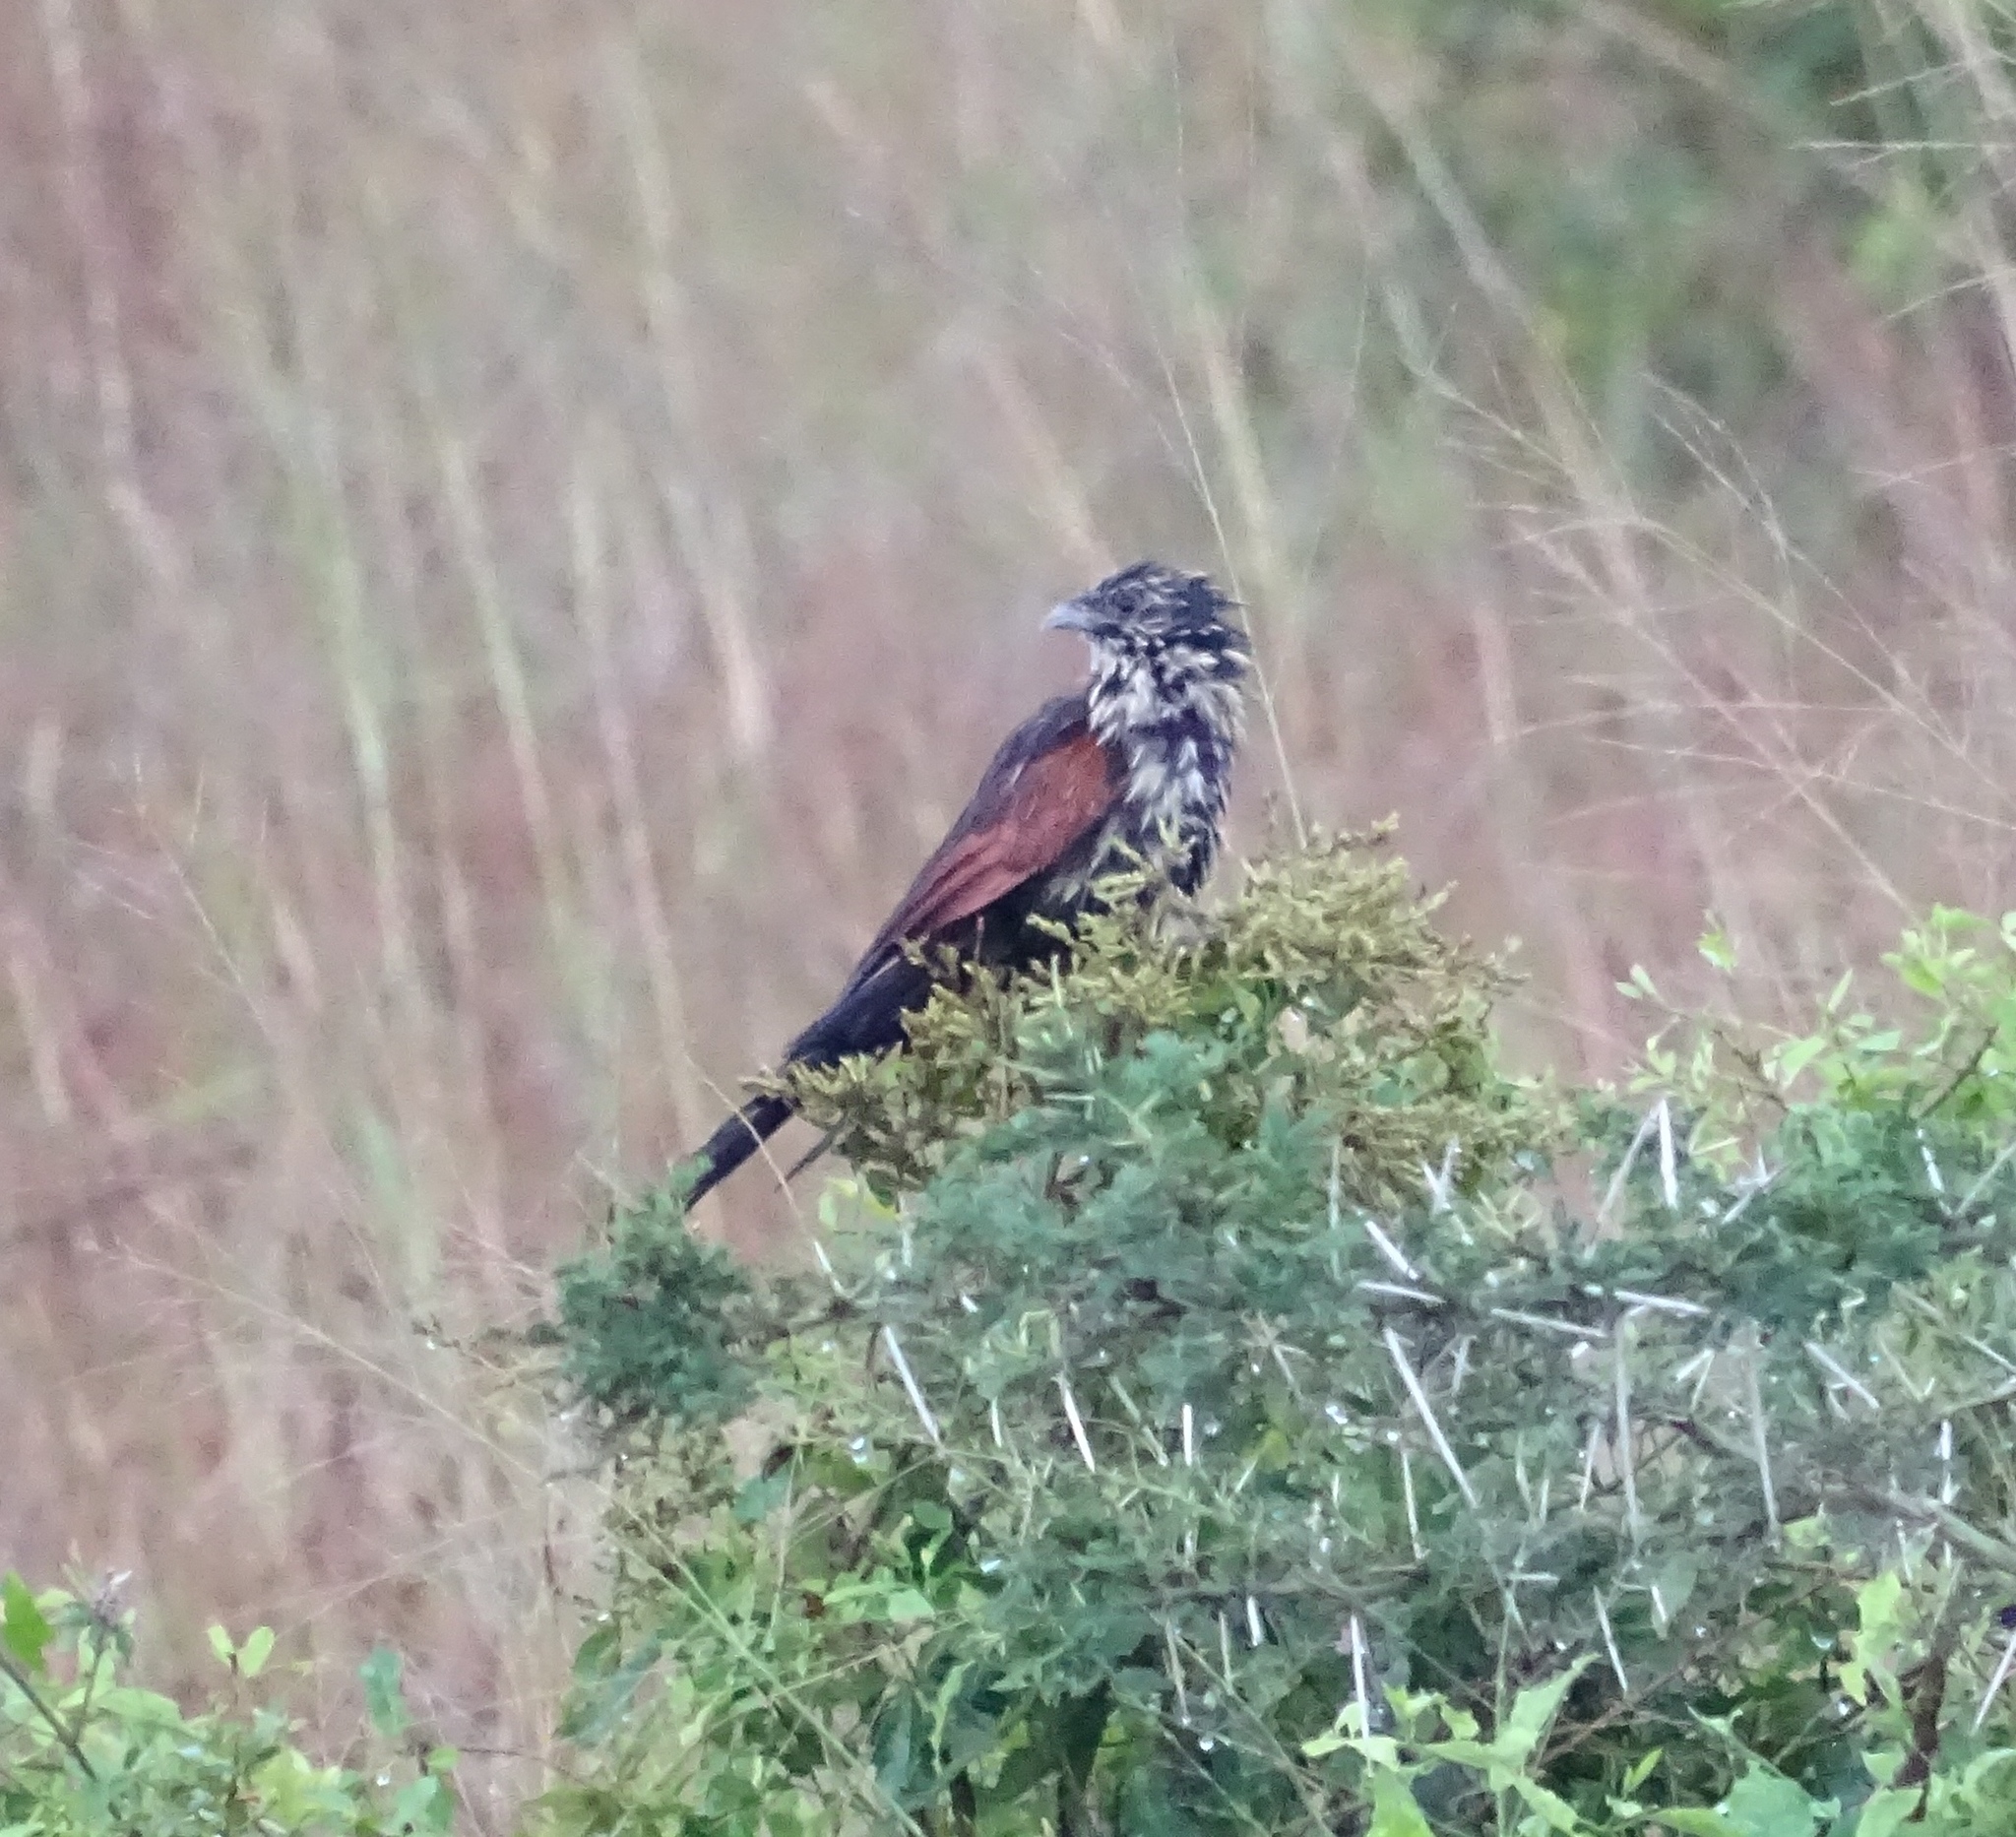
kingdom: Animalia
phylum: Chordata
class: Aves
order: Cuculiformes
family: Cuculidae
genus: Centropus
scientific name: Centropus grillii
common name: Black coucal
